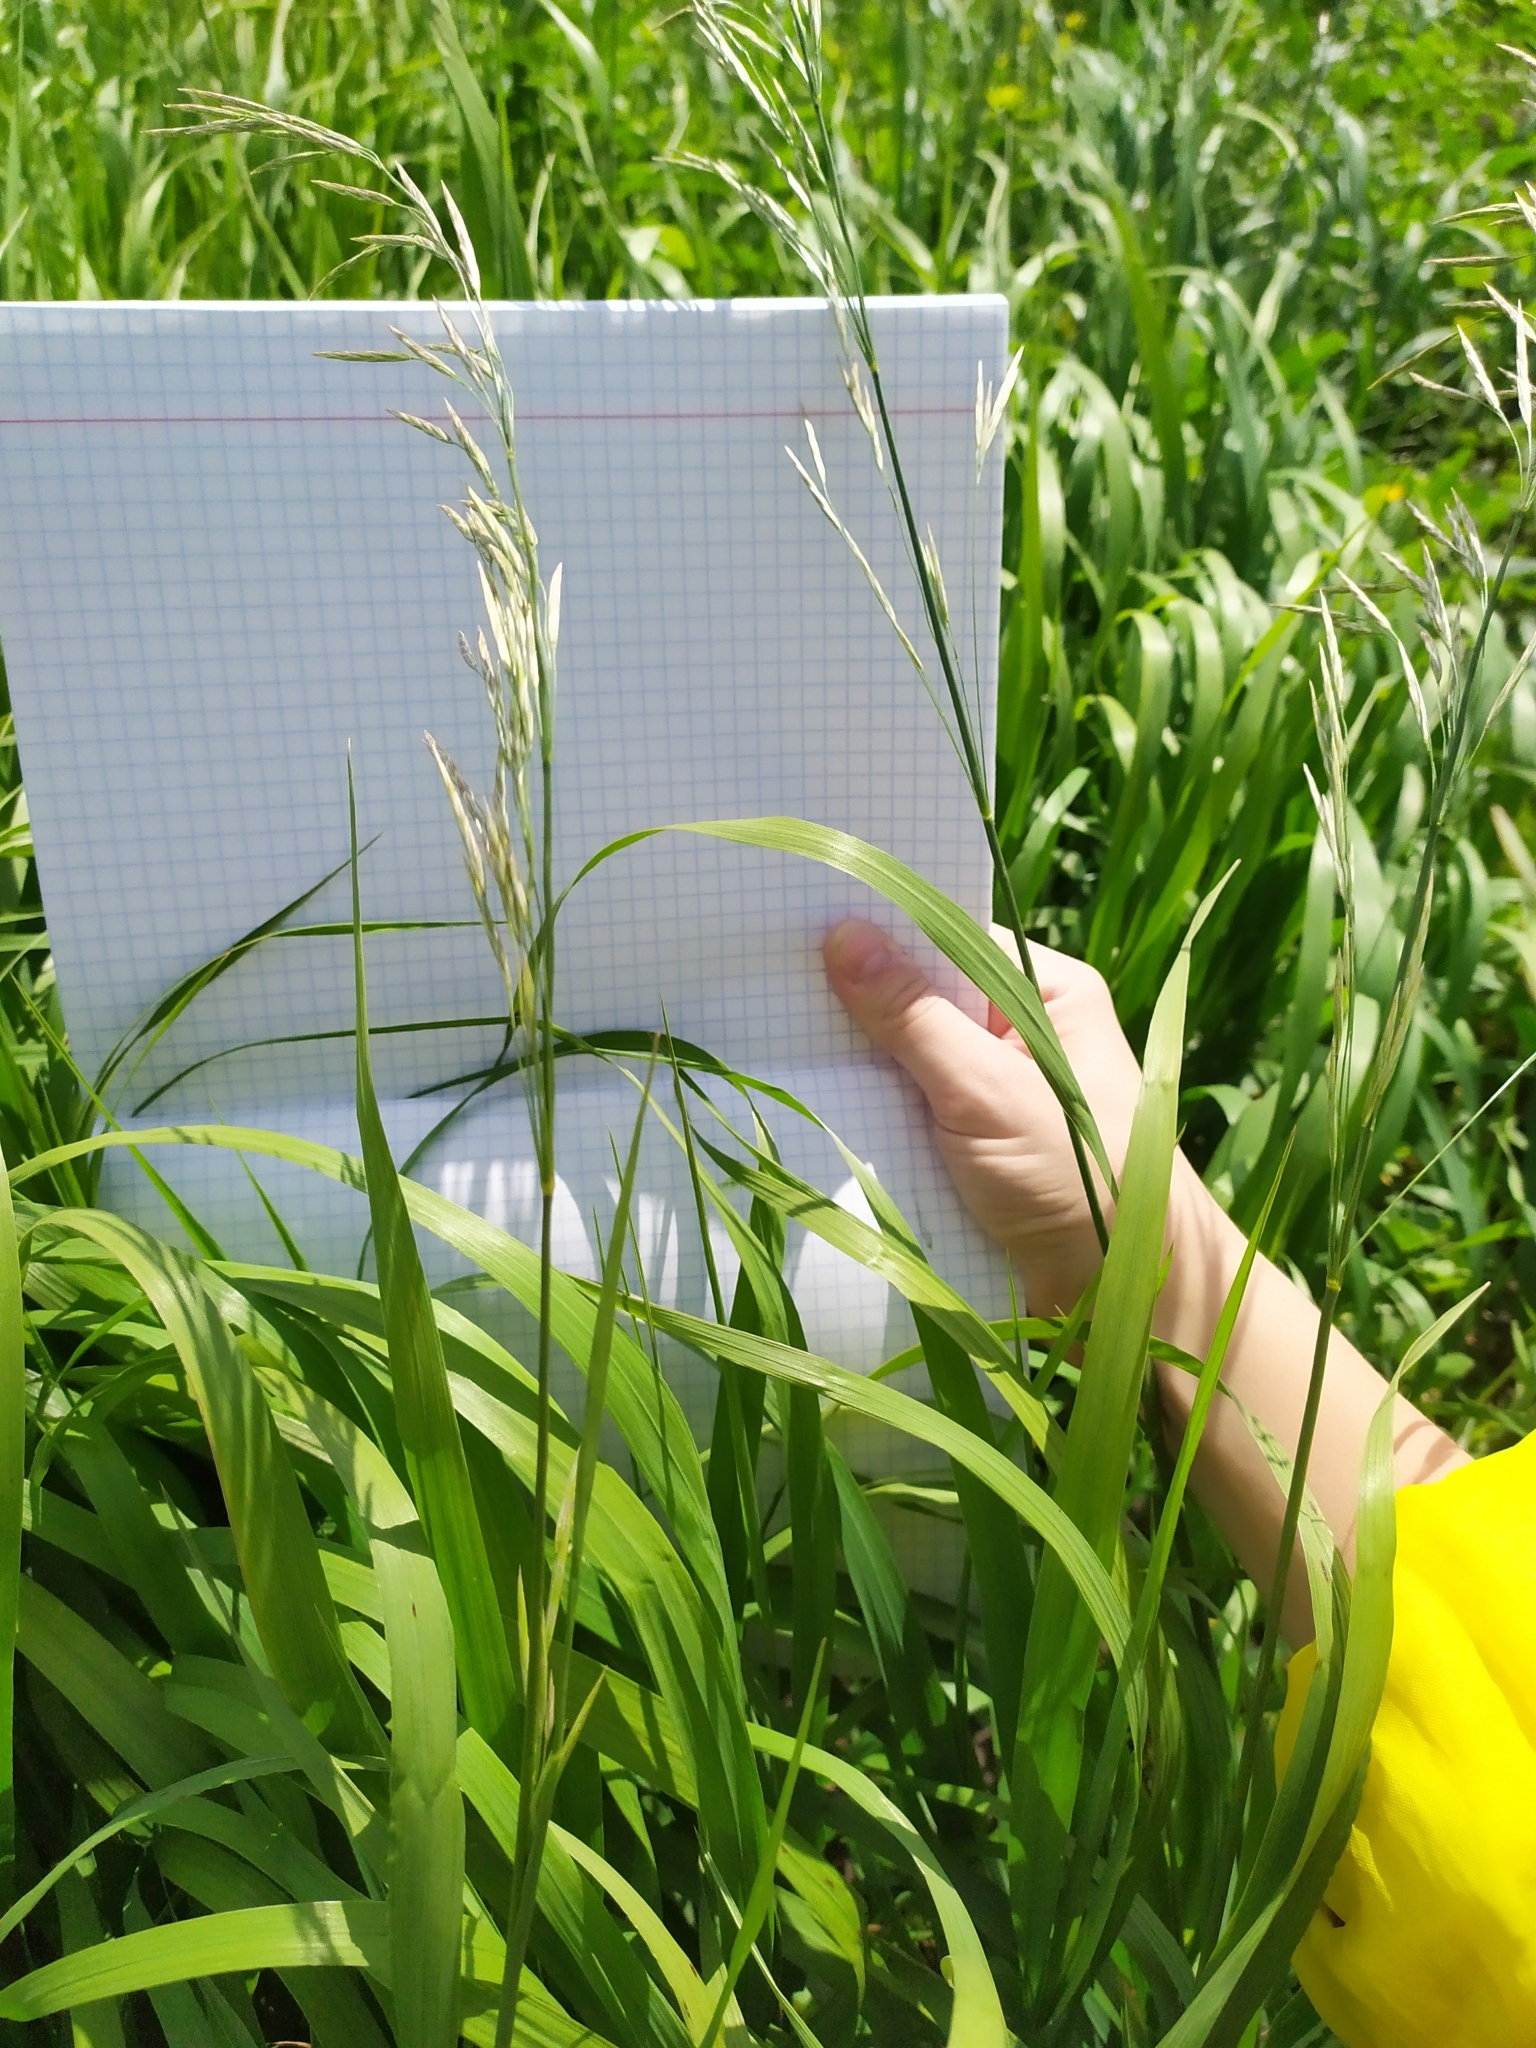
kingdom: Plantae
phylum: Tracheophyta
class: Liliopsida
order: Poales
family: Poaceae
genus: Bromus
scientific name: Bromus inermis
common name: Smooth brome
